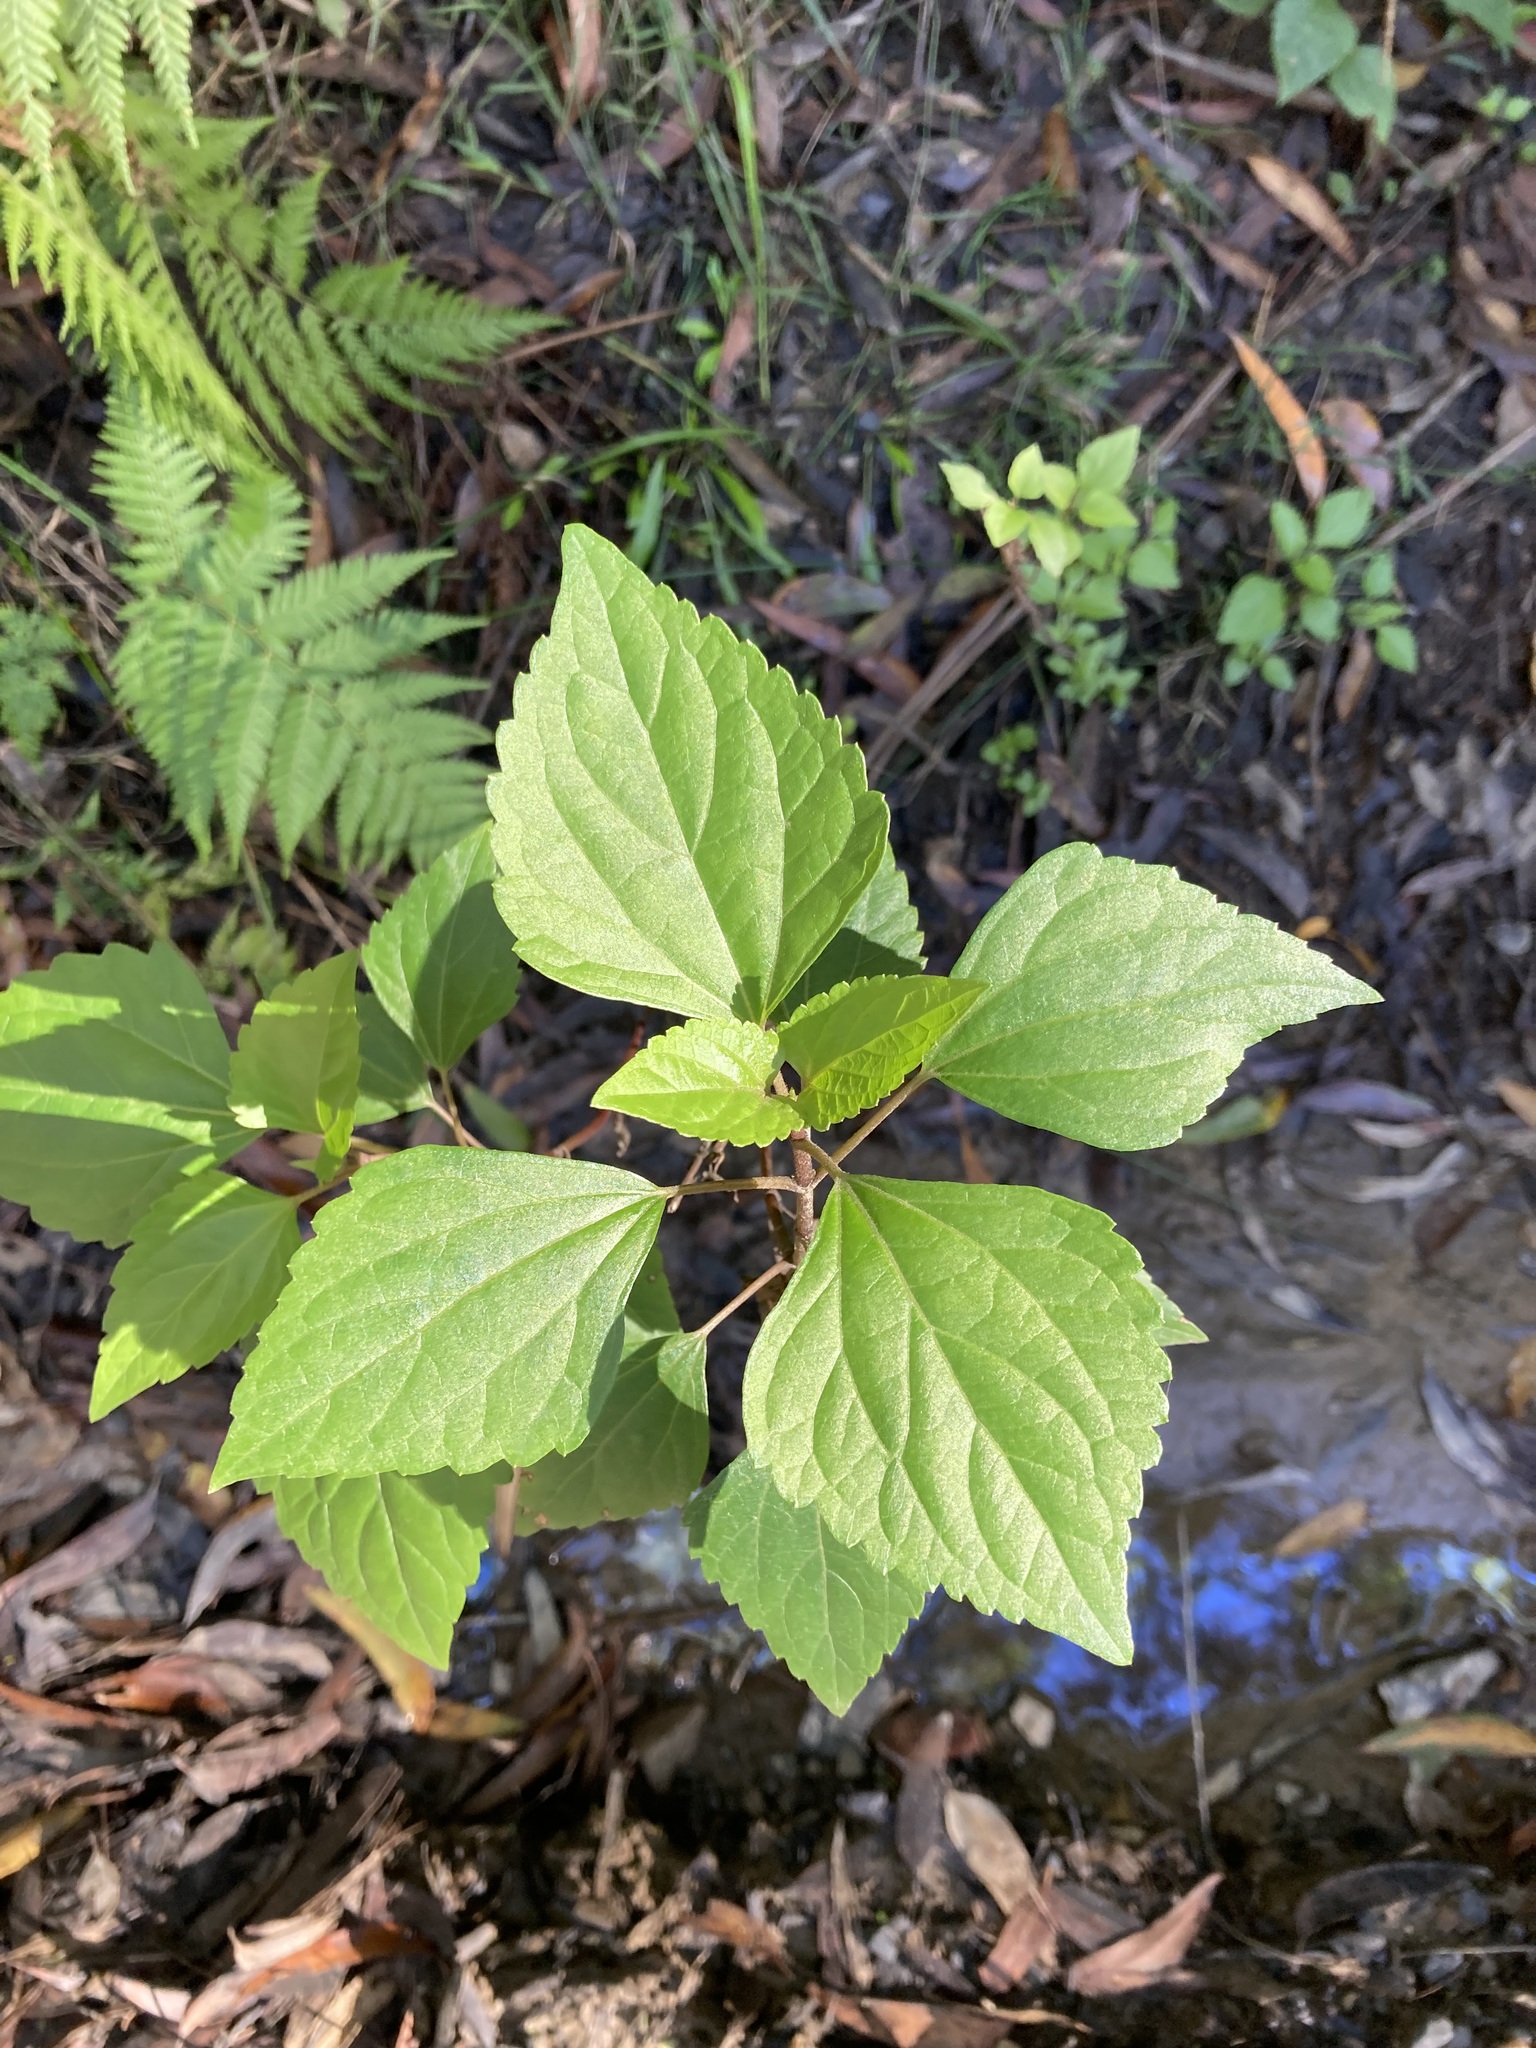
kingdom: Plantae
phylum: Tracheophyta
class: Magnoliopsida
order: Asterales
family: Asteraceae
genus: Ageratina
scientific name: Ageratina adenophora
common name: Sticky snakeroot
